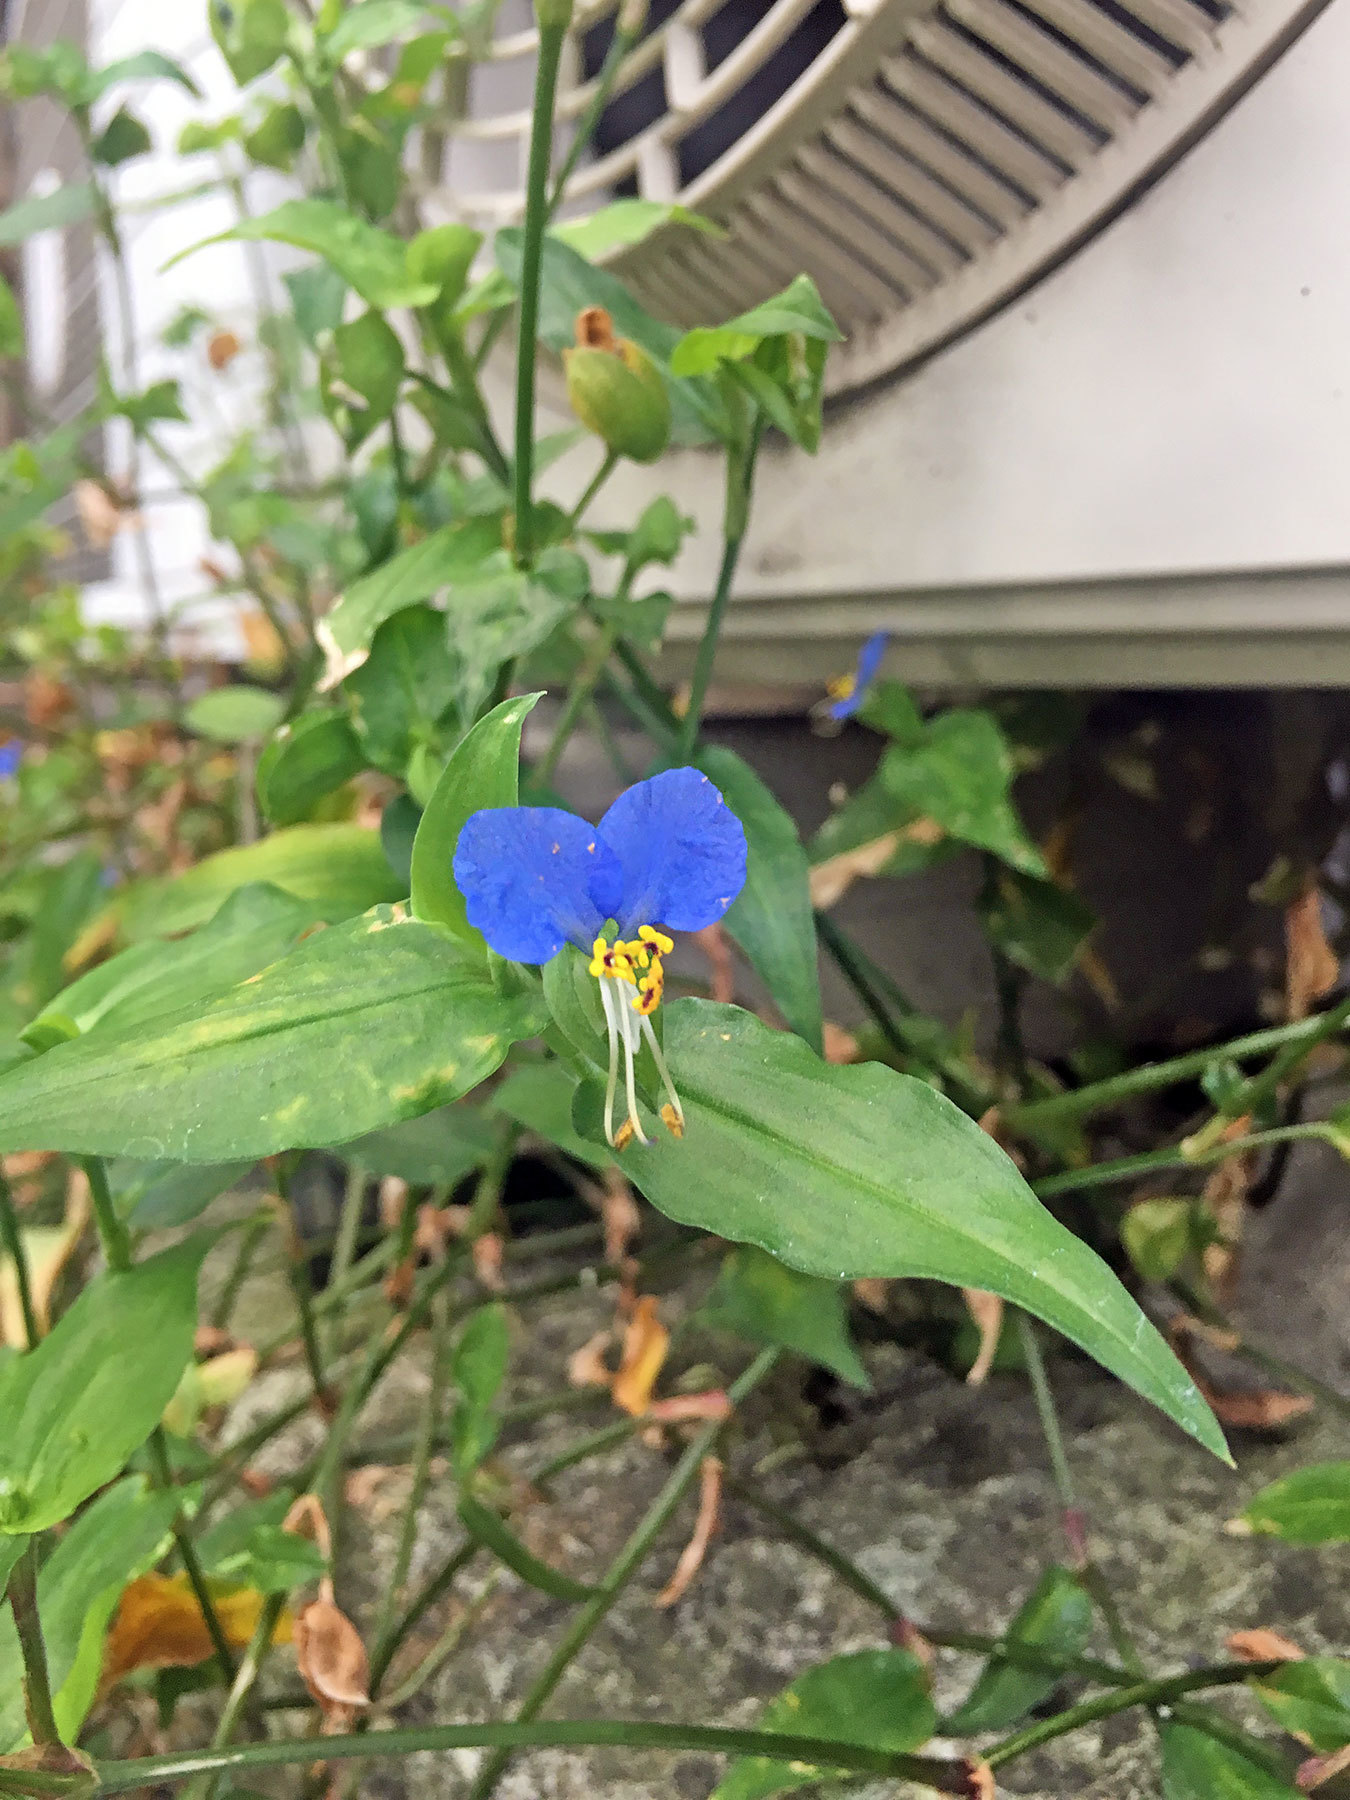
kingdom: Plantae
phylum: Tracheophyta
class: Liliopsida
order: Commelinales
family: Commelinaceae
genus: Commelina
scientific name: Commelina communis
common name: Asiatic dayflower
